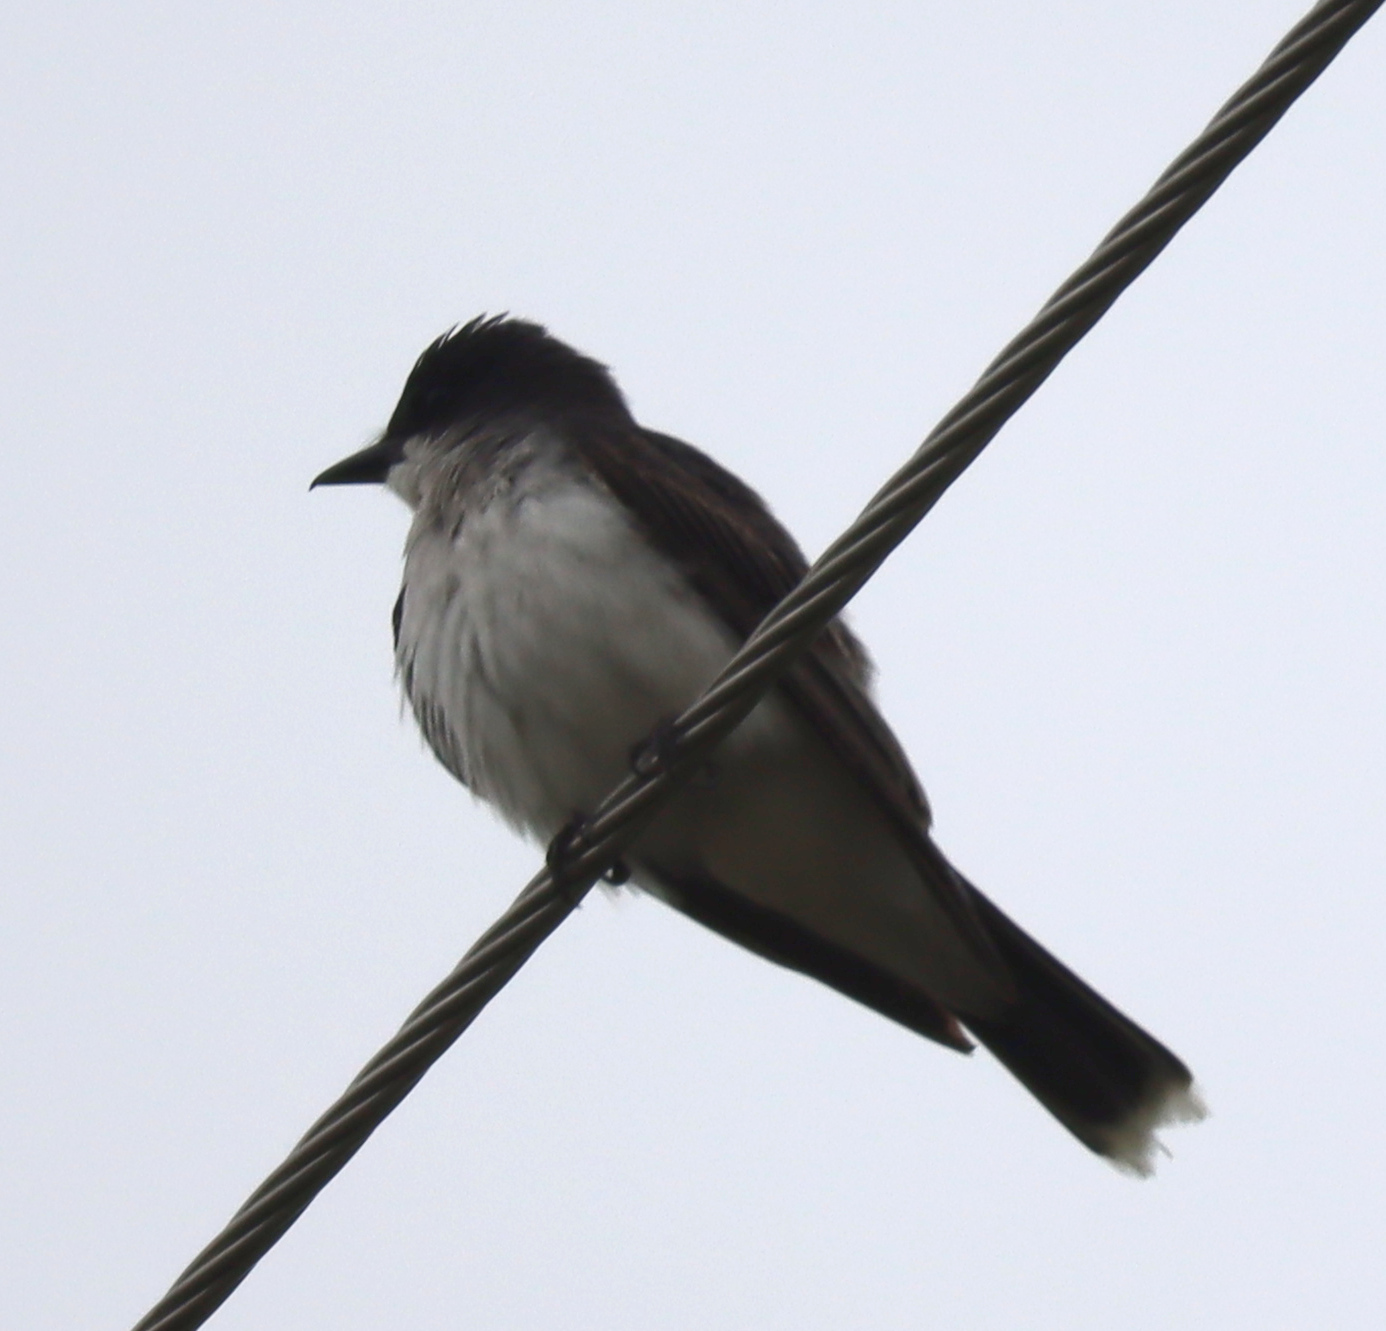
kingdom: Animalia
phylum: Chordata
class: Aves
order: Passeriformes
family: Tyrannidae
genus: Tyrannus
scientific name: Tyrannus tyrannus
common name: Eastern kingbird
